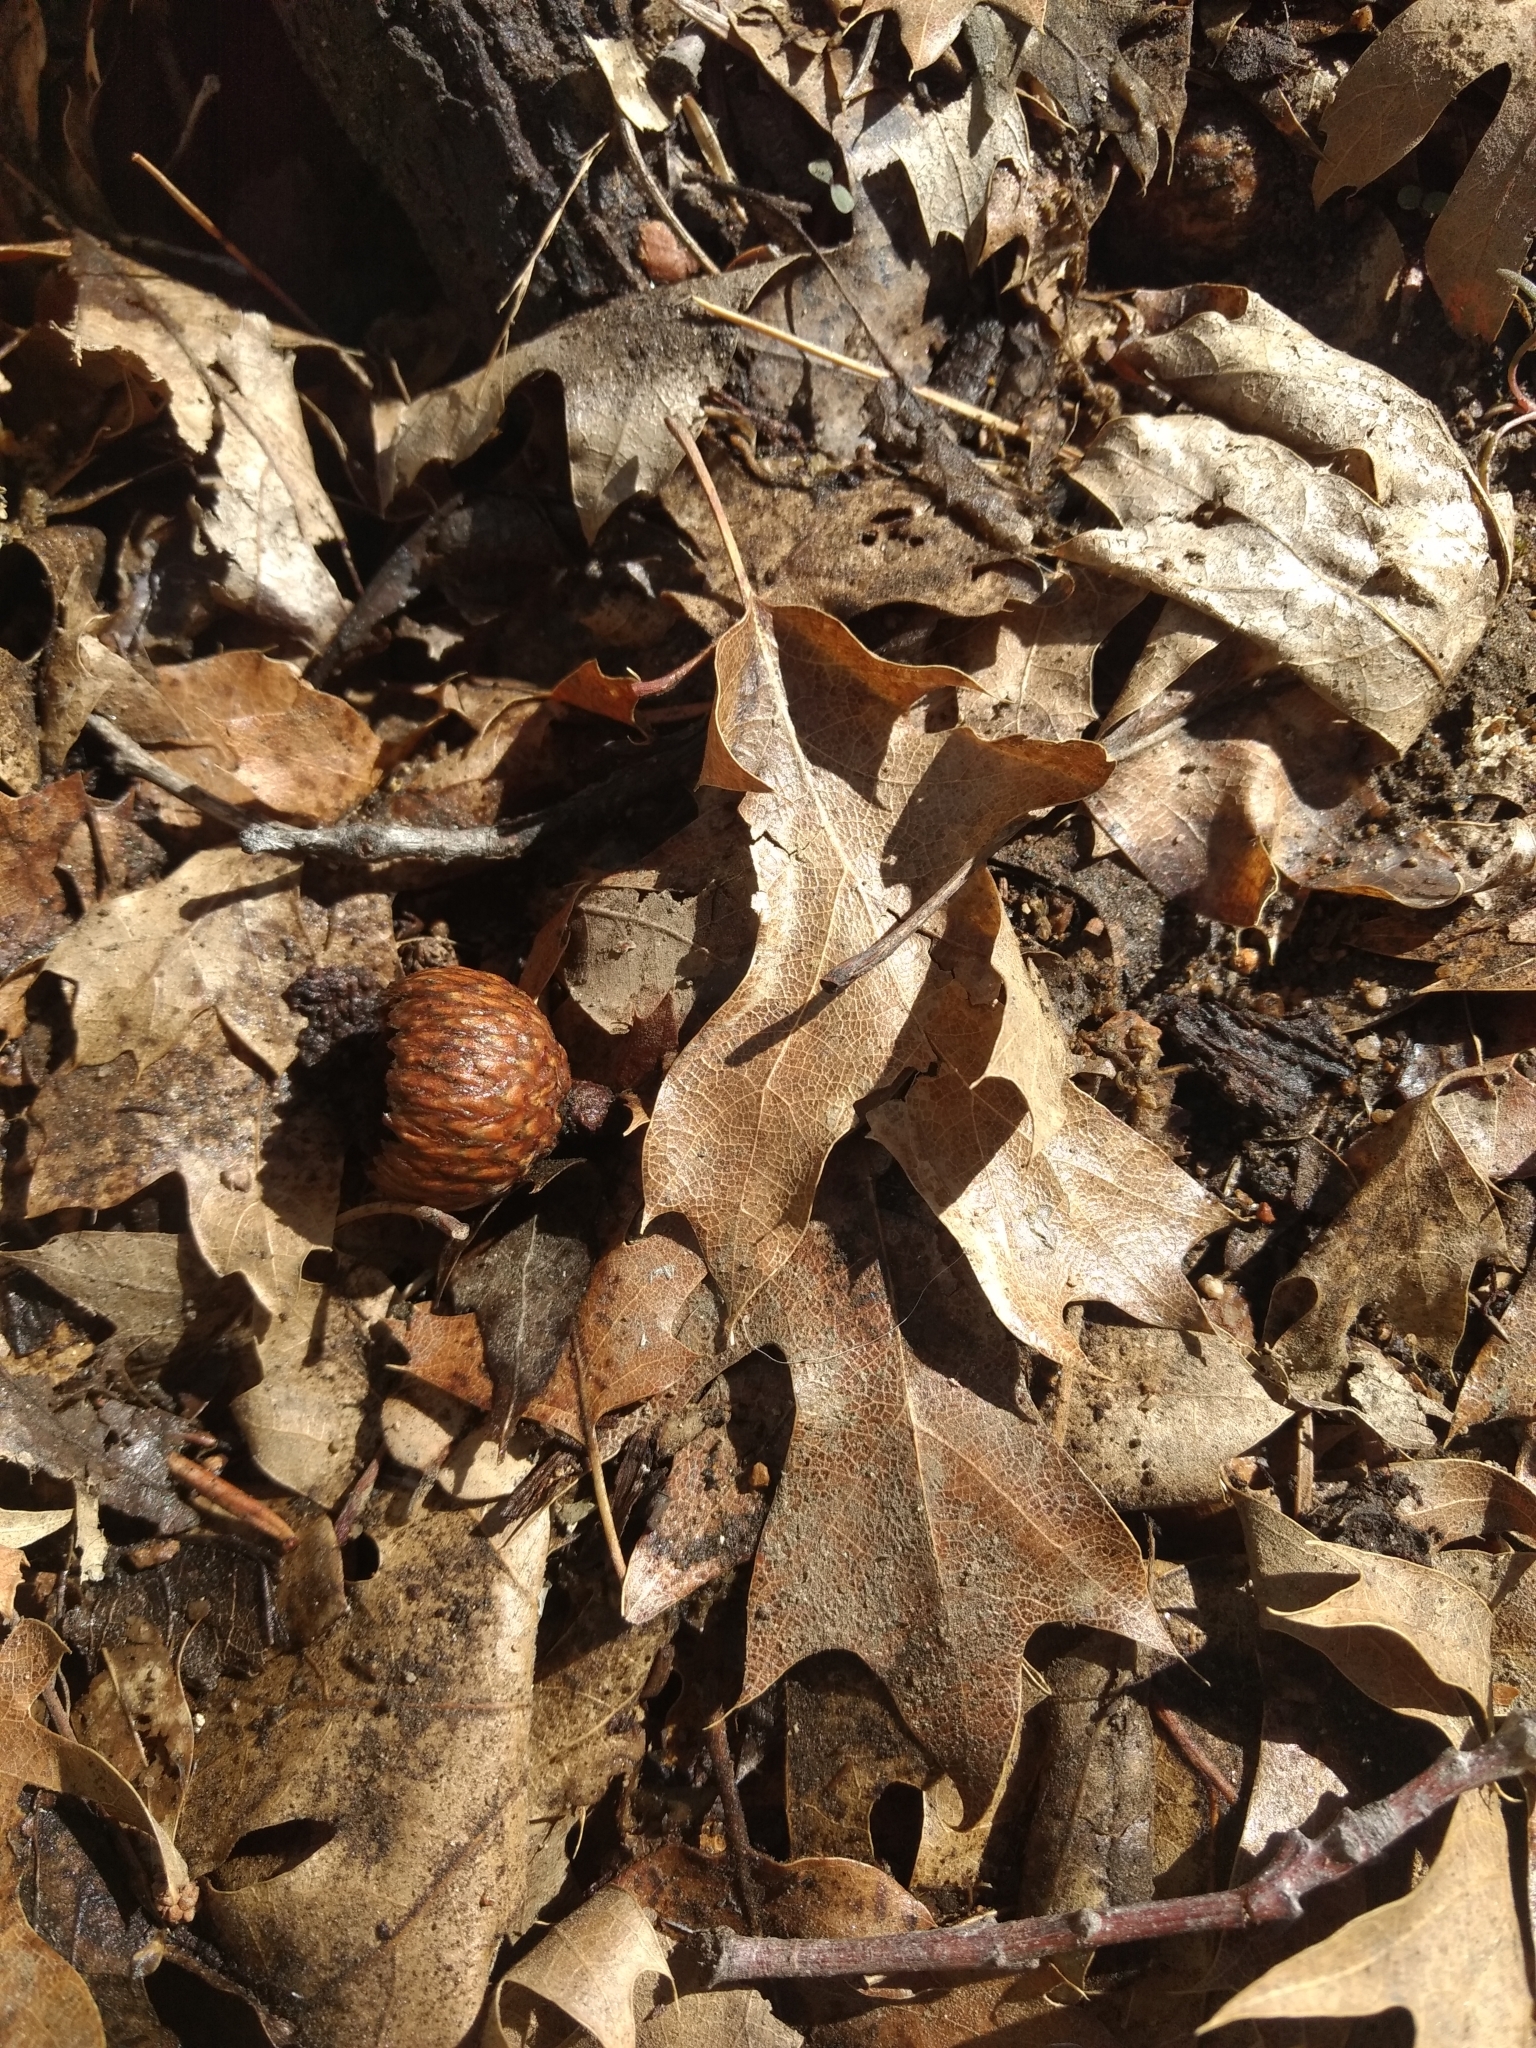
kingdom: Plantae
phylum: Tracheophyta
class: Magnoliopsida
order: Fagales
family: Fagaceae
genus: Quercus
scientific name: Quercus kelloggii
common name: California black oak
